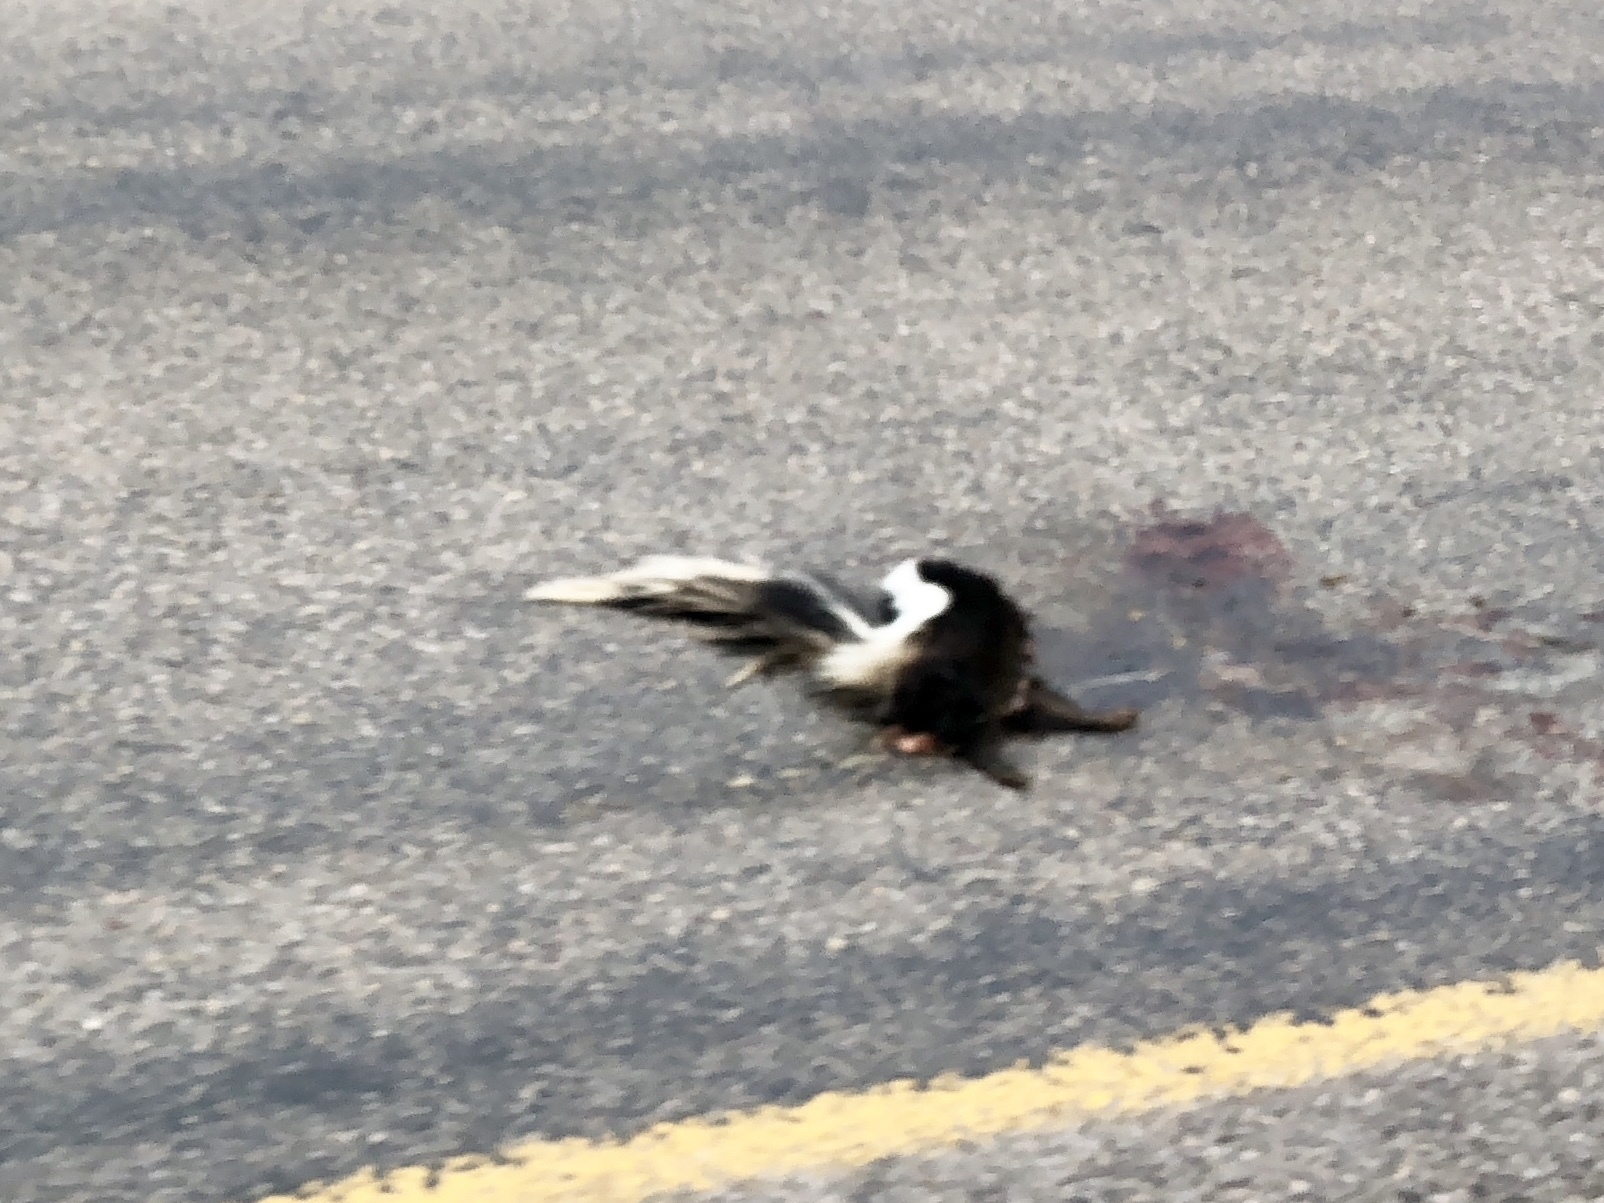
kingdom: Animalia
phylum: Chordata
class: Mammalia
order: Carnivora
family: Mephitidae
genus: Mephitis
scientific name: Mephitis mephitis
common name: Striped skunk
